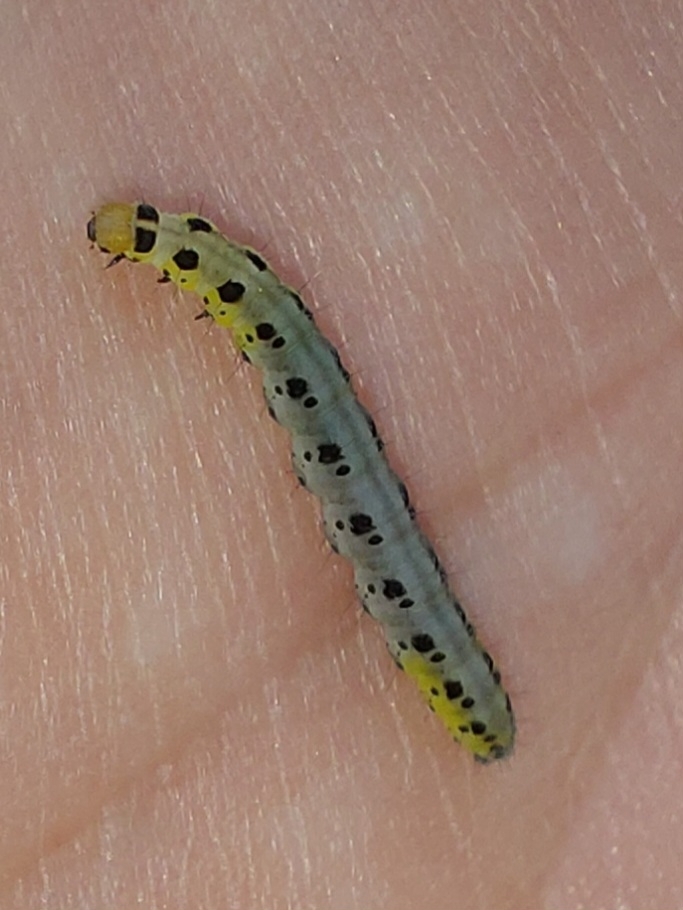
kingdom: Animalia
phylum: Arthropoda
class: Insecta
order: Lepidoptera
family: Yponomeutidae
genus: Yponomeuta
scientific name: Yponomeuta vigintipunctata
